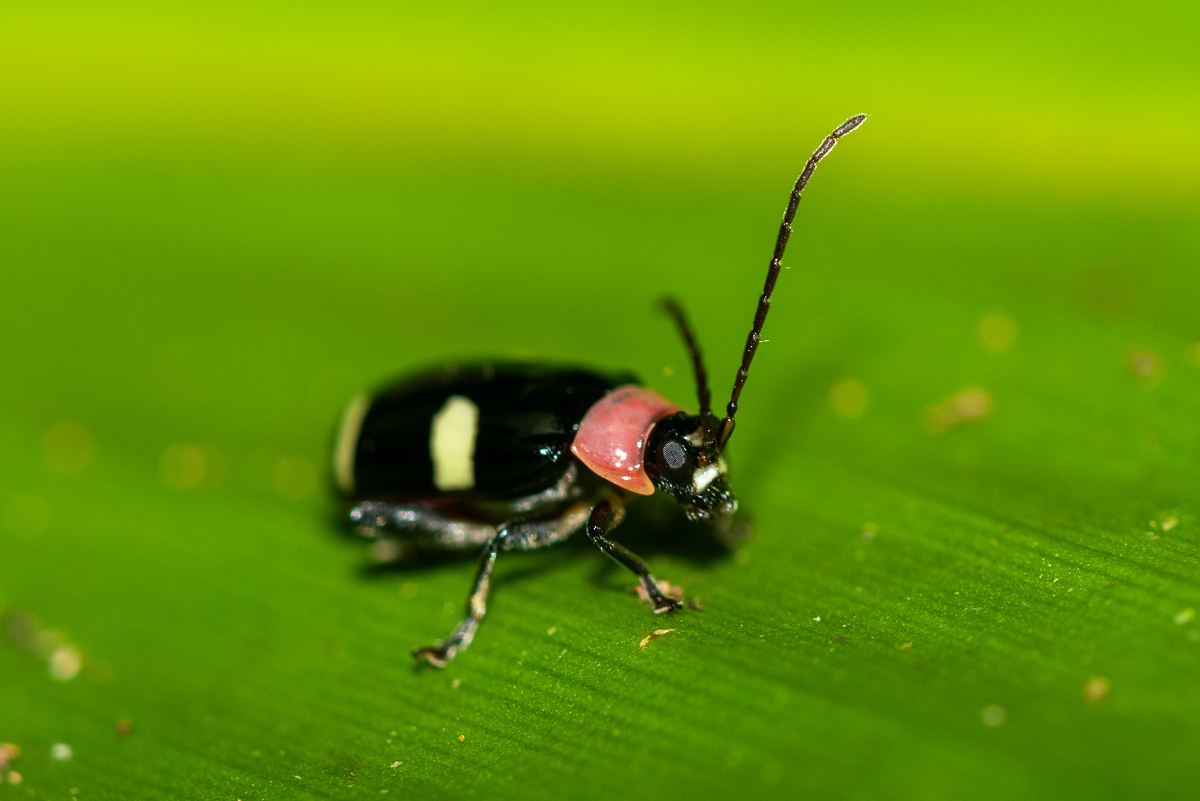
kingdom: Animalia
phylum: Arthropoda
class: Insecta
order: Coleoptera
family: Chrysomelidae
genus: Omophoita
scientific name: Omophoita
